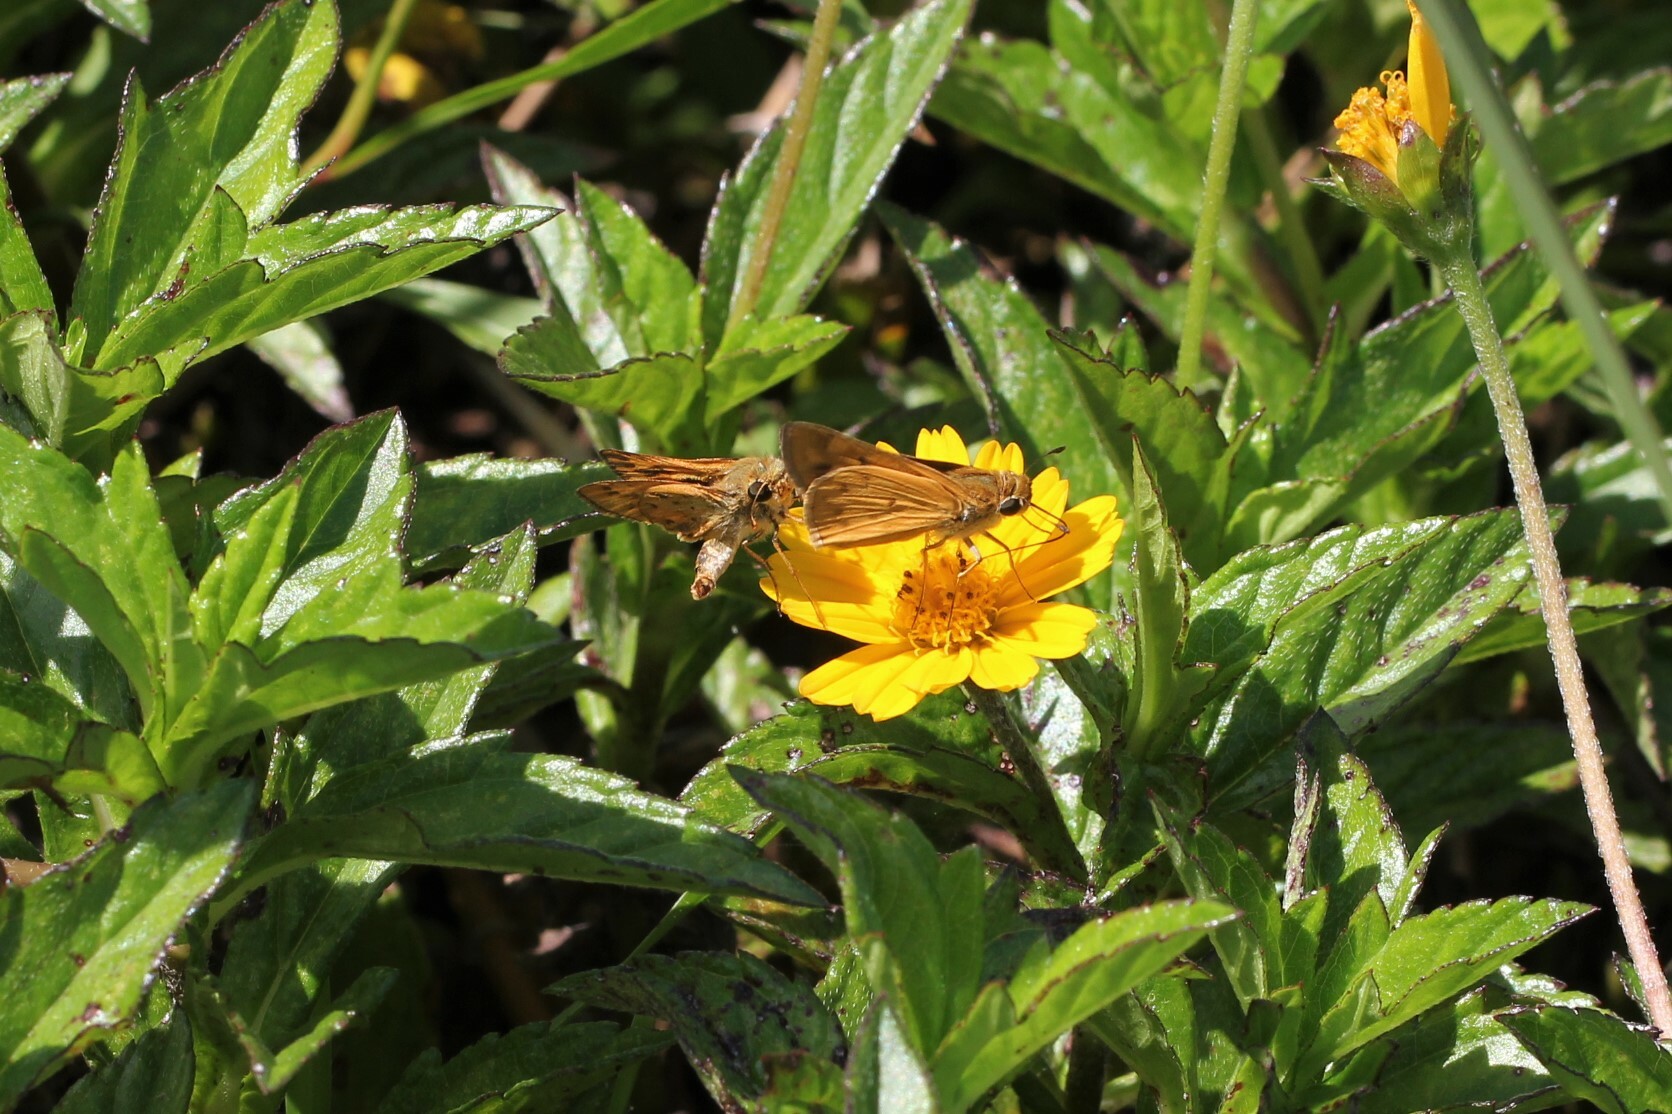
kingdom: Animalia
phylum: Arthropoda
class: Insecta
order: Lepidoptera
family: Hesperiidae
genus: Hylephila
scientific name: Hylephila phyleus
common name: Fiery skipper
